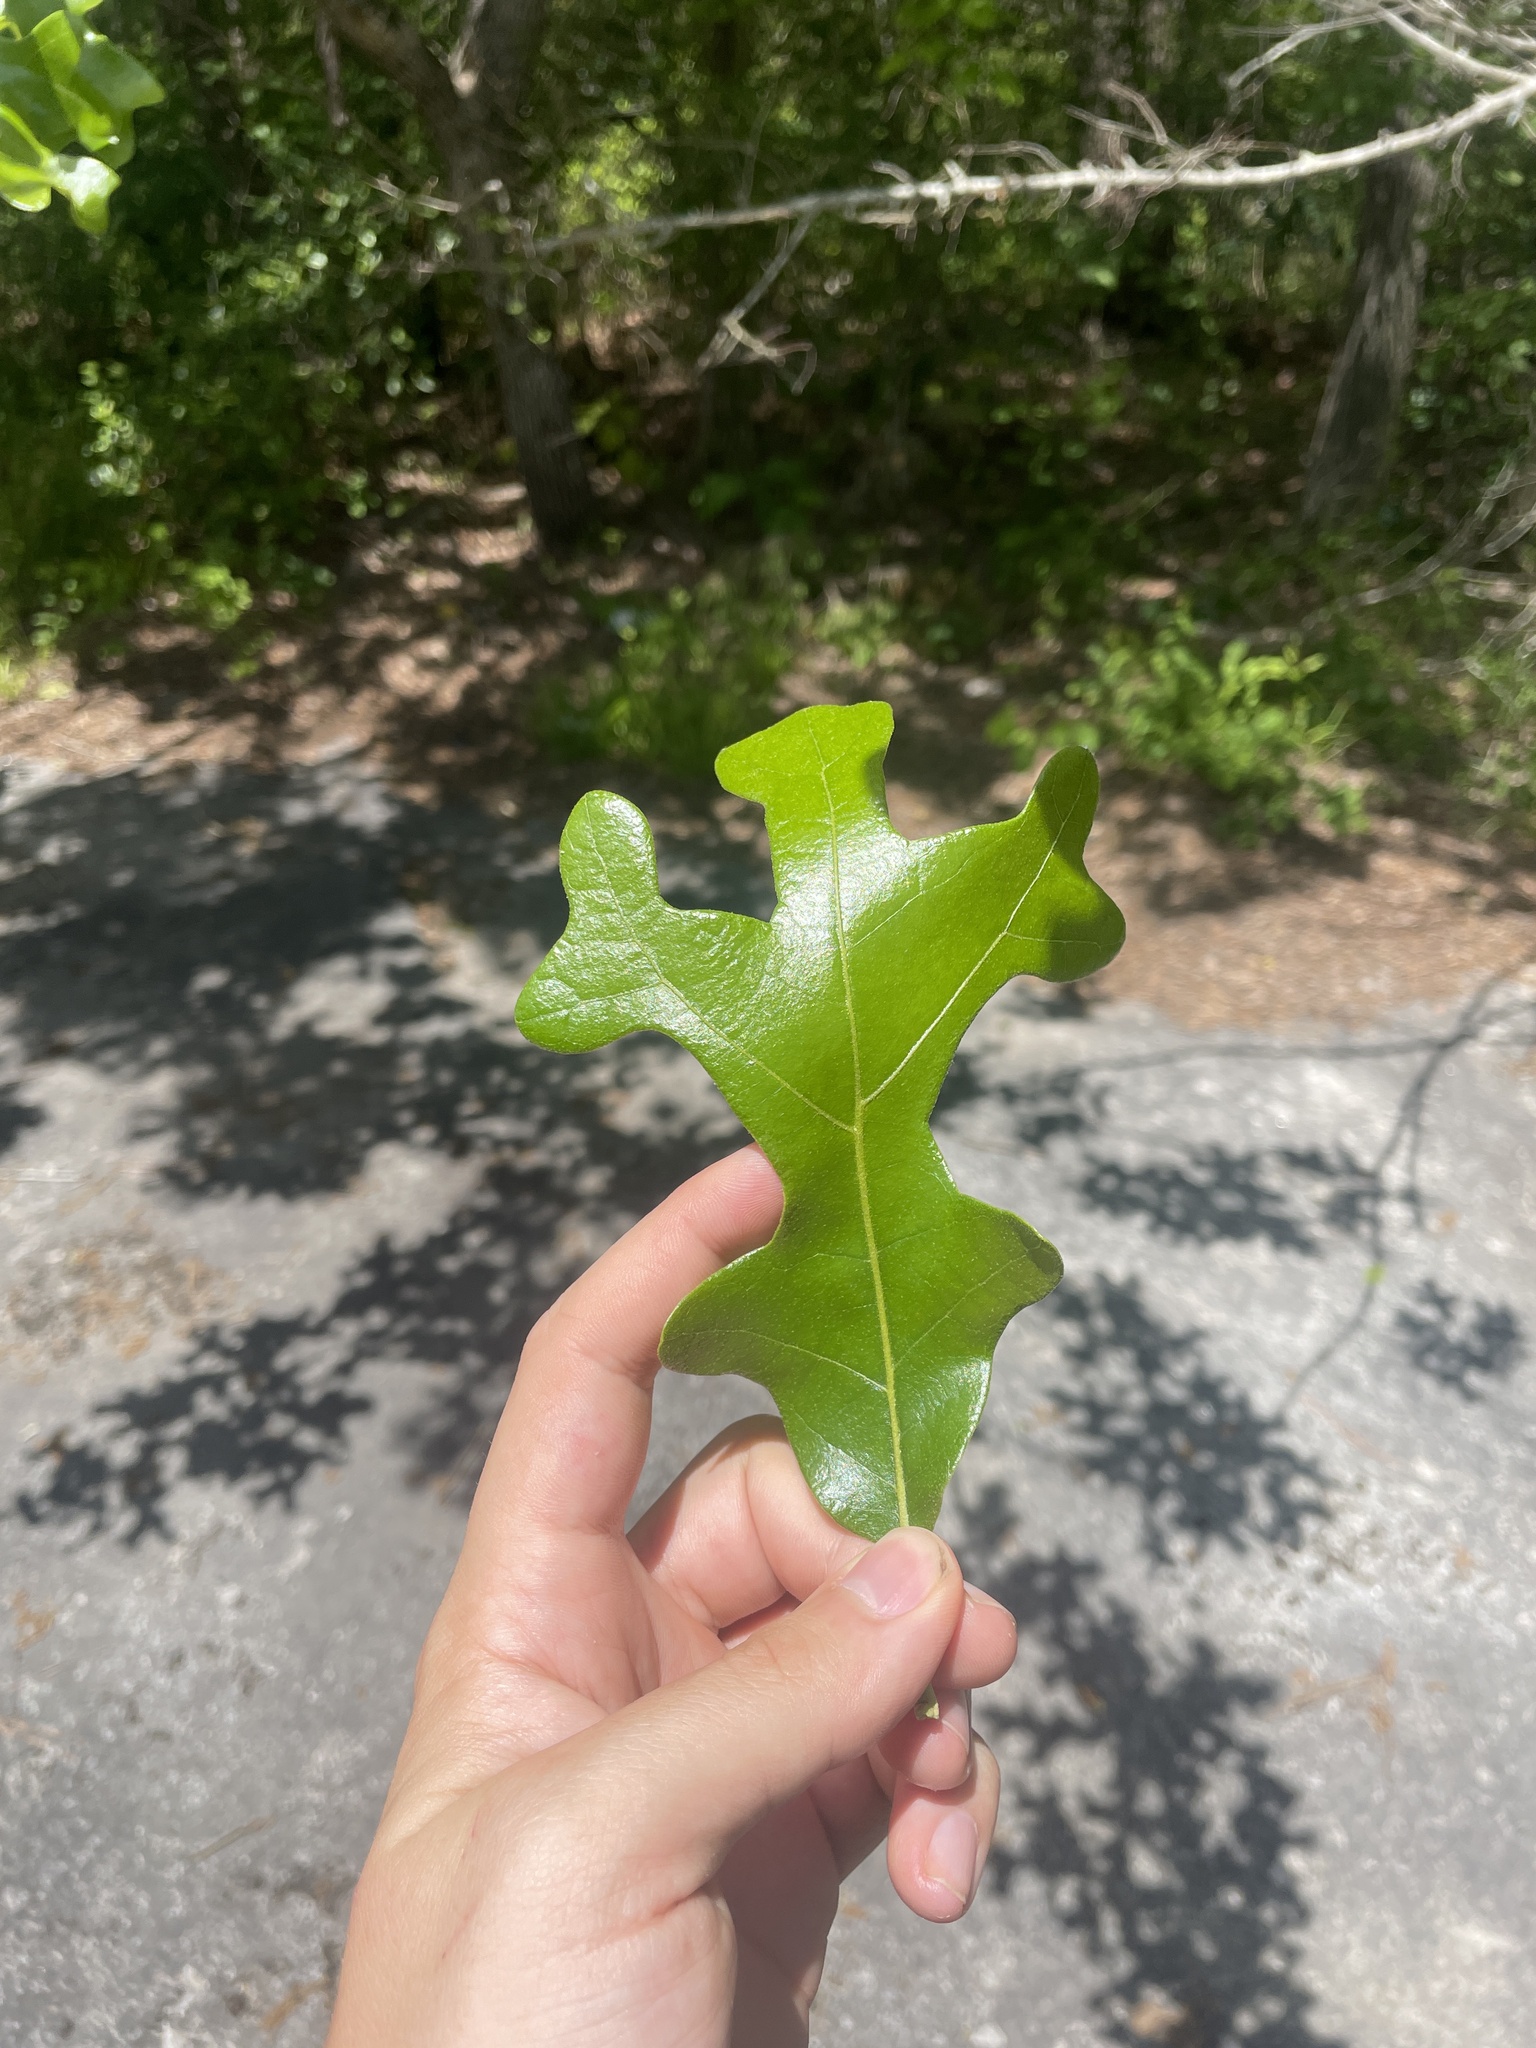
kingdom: Plantae
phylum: Tracheophyta
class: Magnoliopsida
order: Fagales
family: Fagaceae
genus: Quercus
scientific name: Quercus stellata
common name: Post oak
